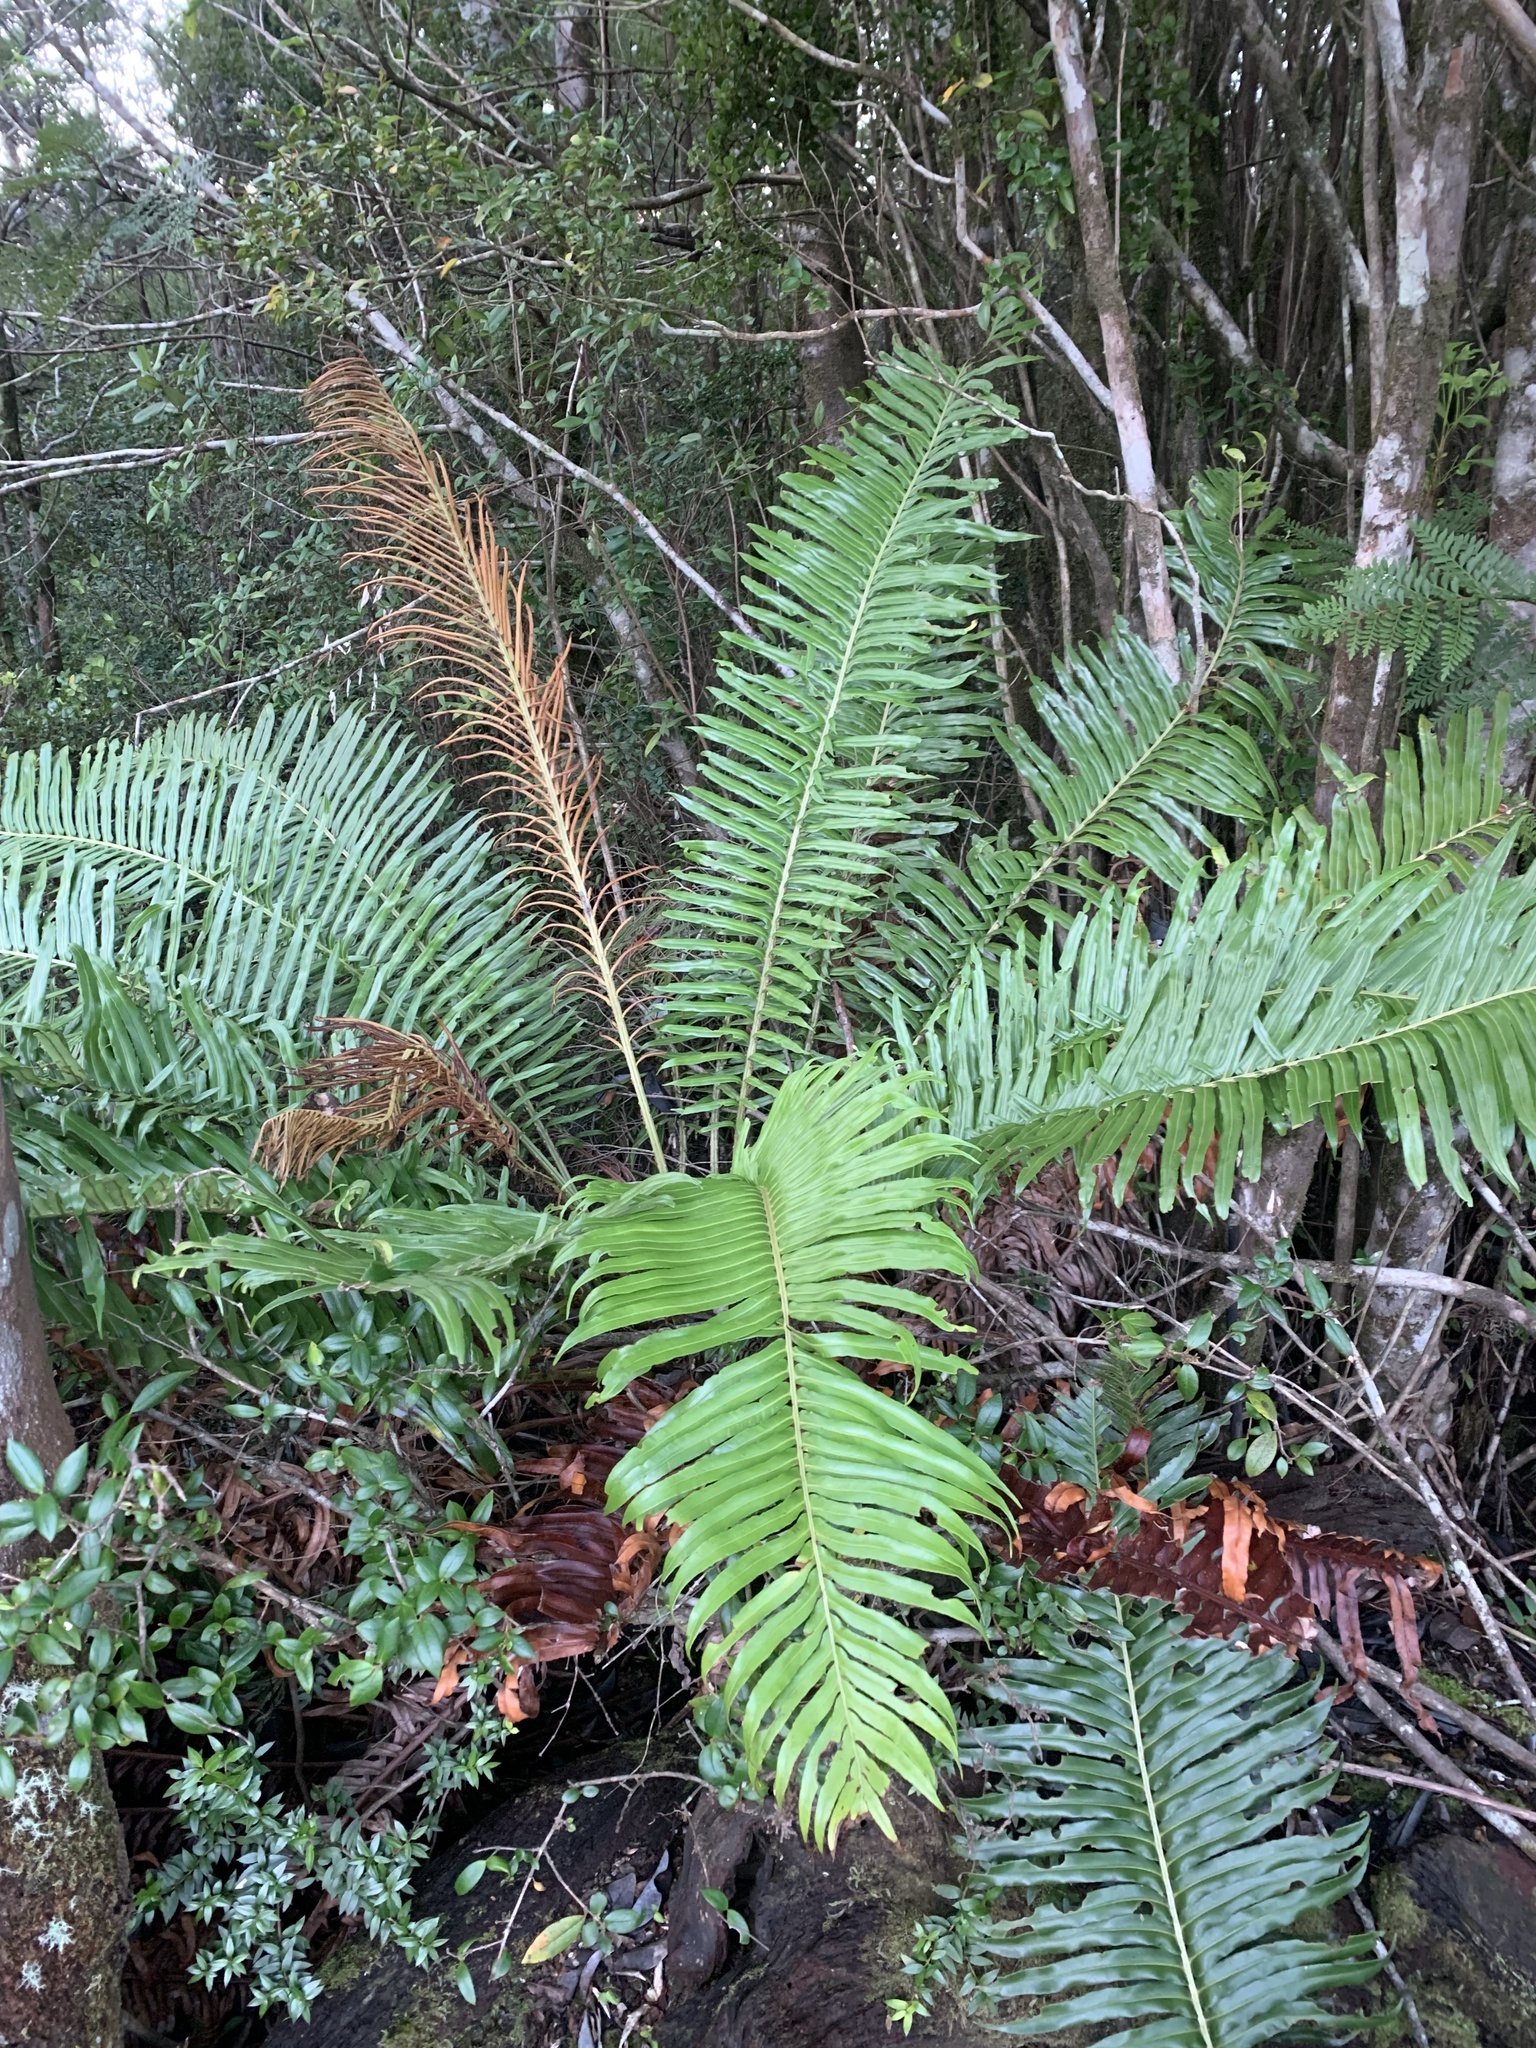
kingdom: Plantae
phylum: Tracheophyta
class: Polypodiopsida
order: Polypodiales
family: Blechnaceae
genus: Lomariocycas
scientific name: Lomariocycas magellanica
